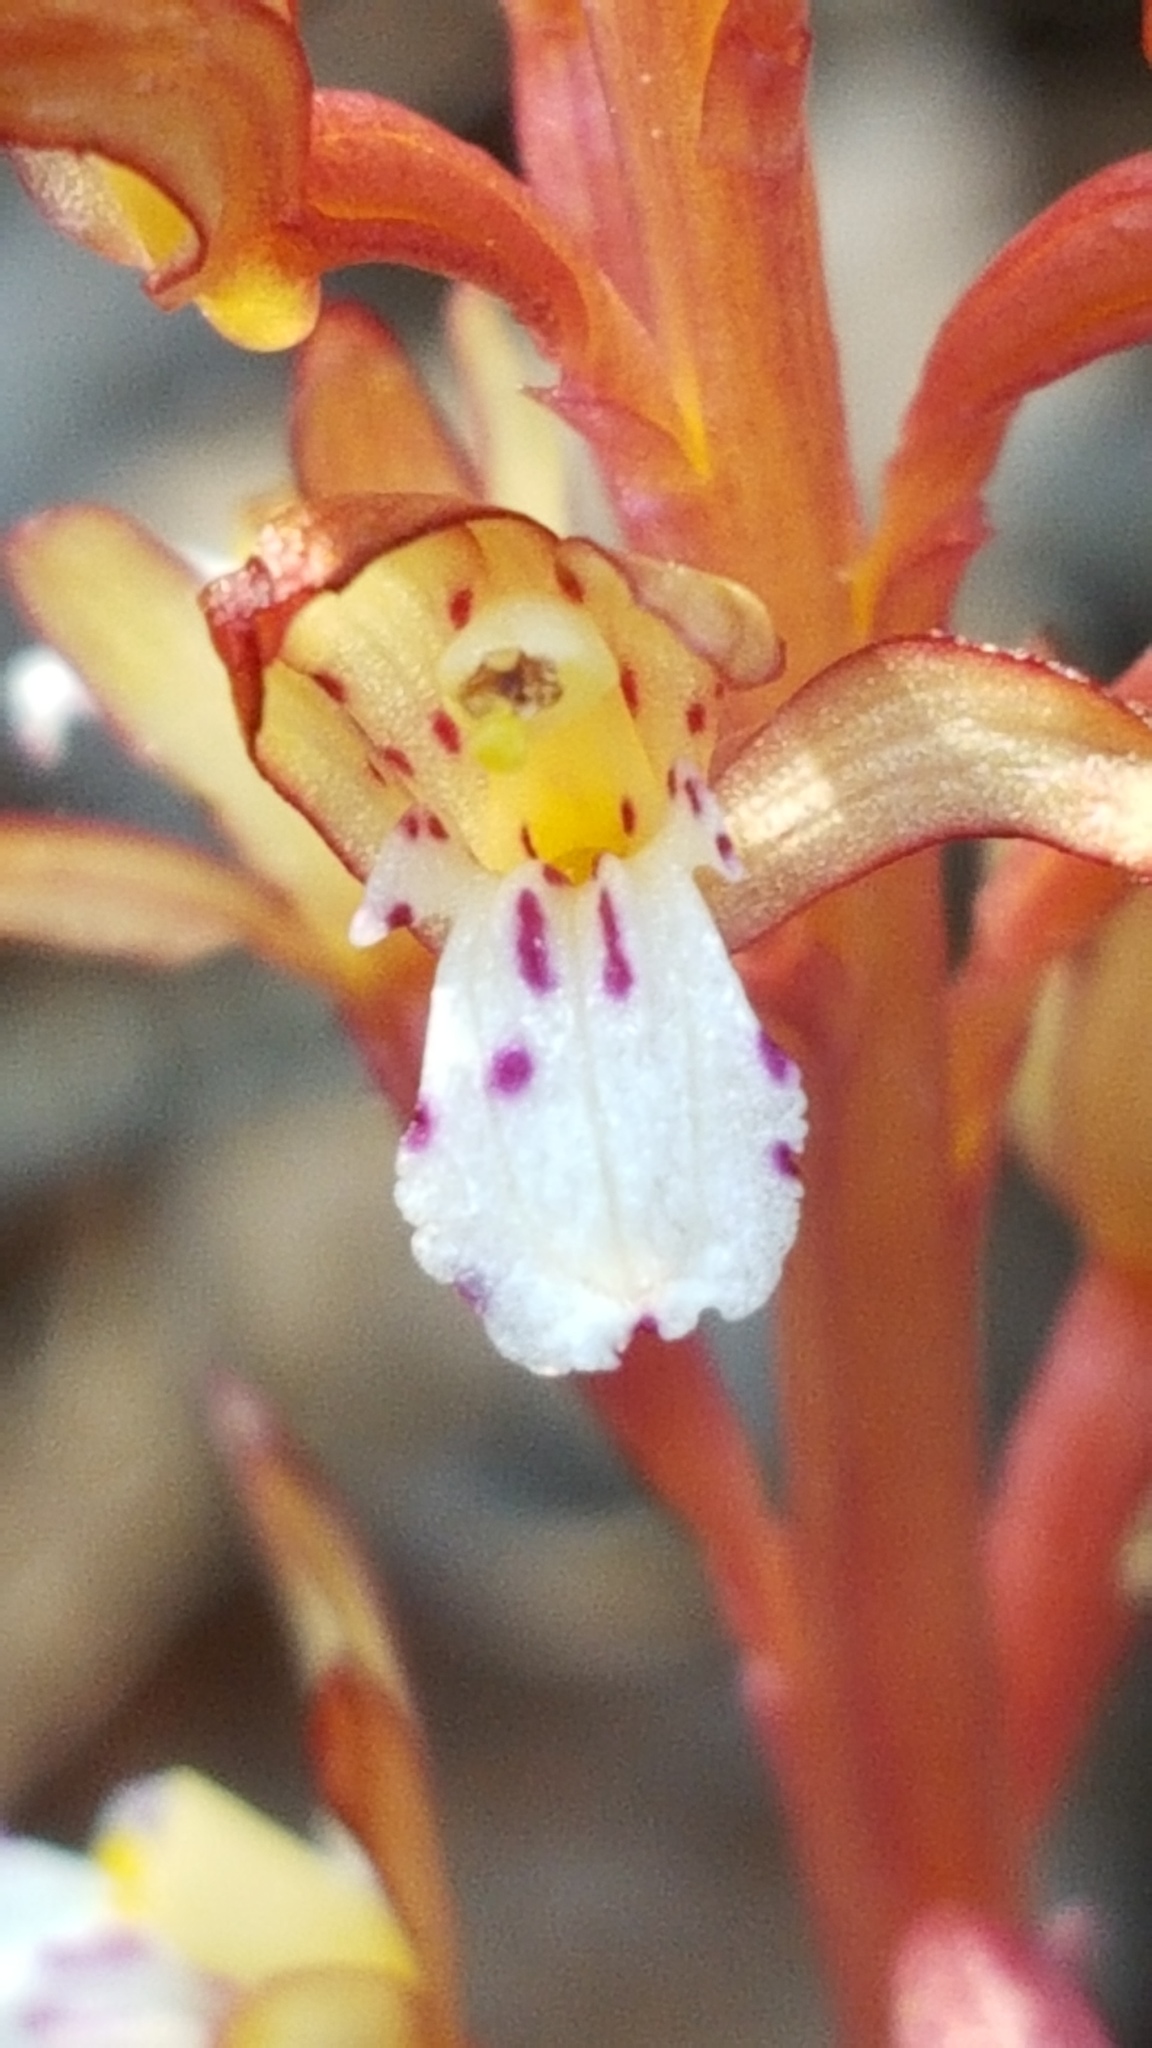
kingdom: Plantae
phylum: Tracheophyta
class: Liliopsida
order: Asparagales
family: Orchidaceae
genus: Corallorhiza
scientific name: Corallorhiza maculata
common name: Spotted coralroot
